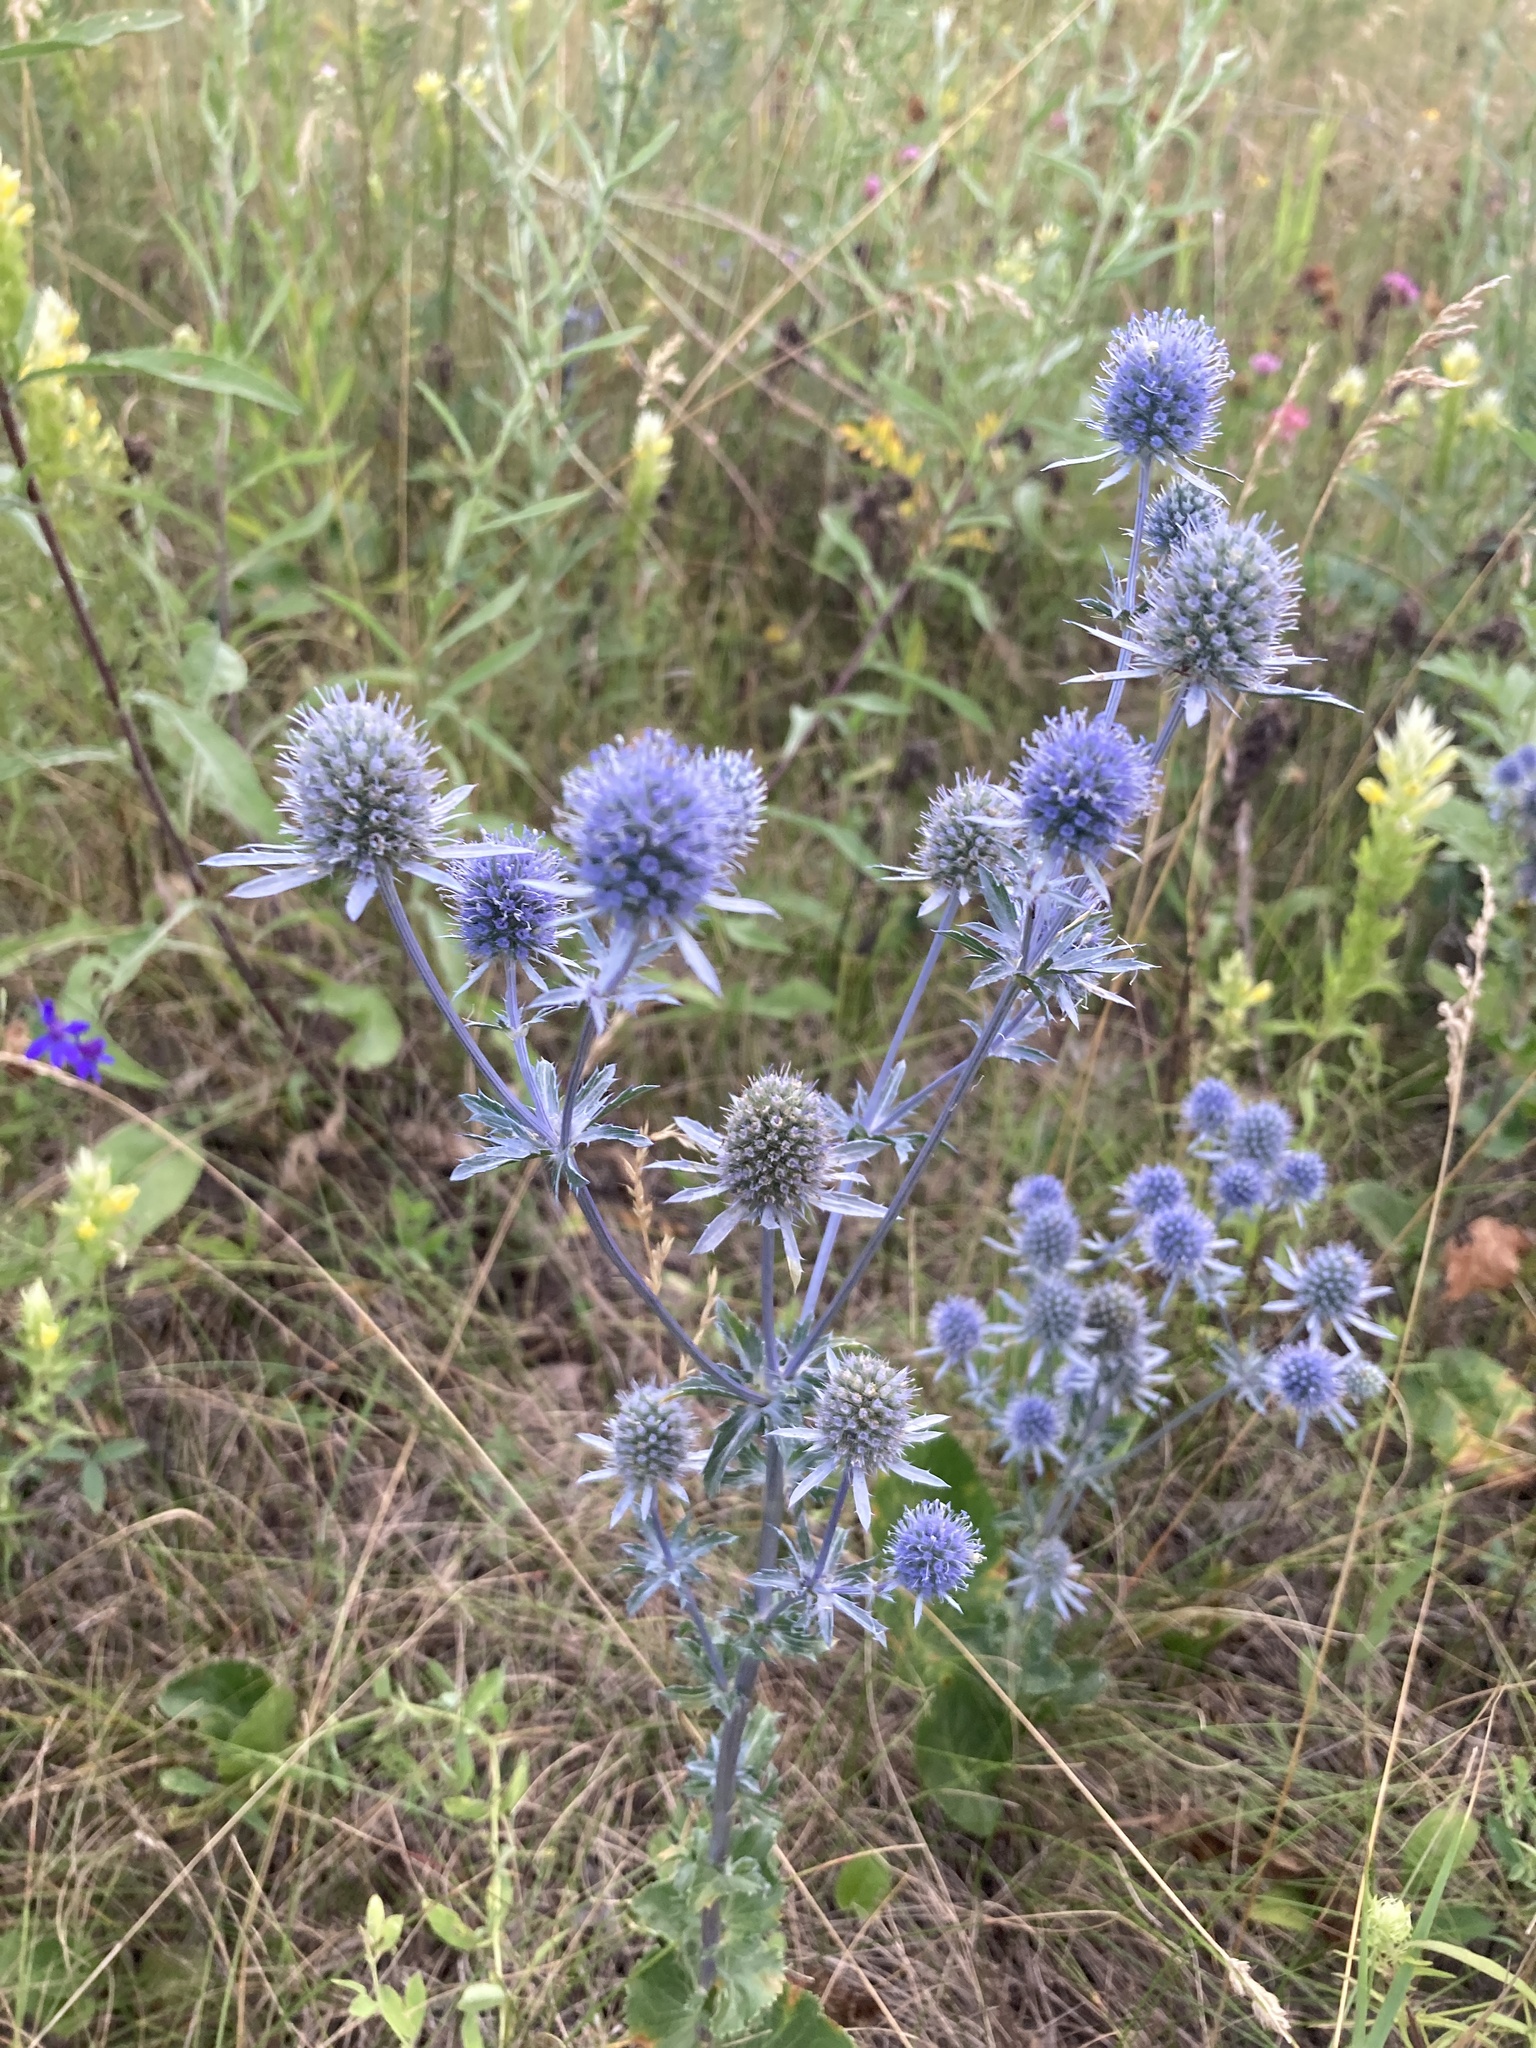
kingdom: Plantae
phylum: Tracheophyta
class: Magnoliopsida
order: Apiales
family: Apiaceae
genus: Eryngium
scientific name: Eryngium planum
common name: Blue eryngo
